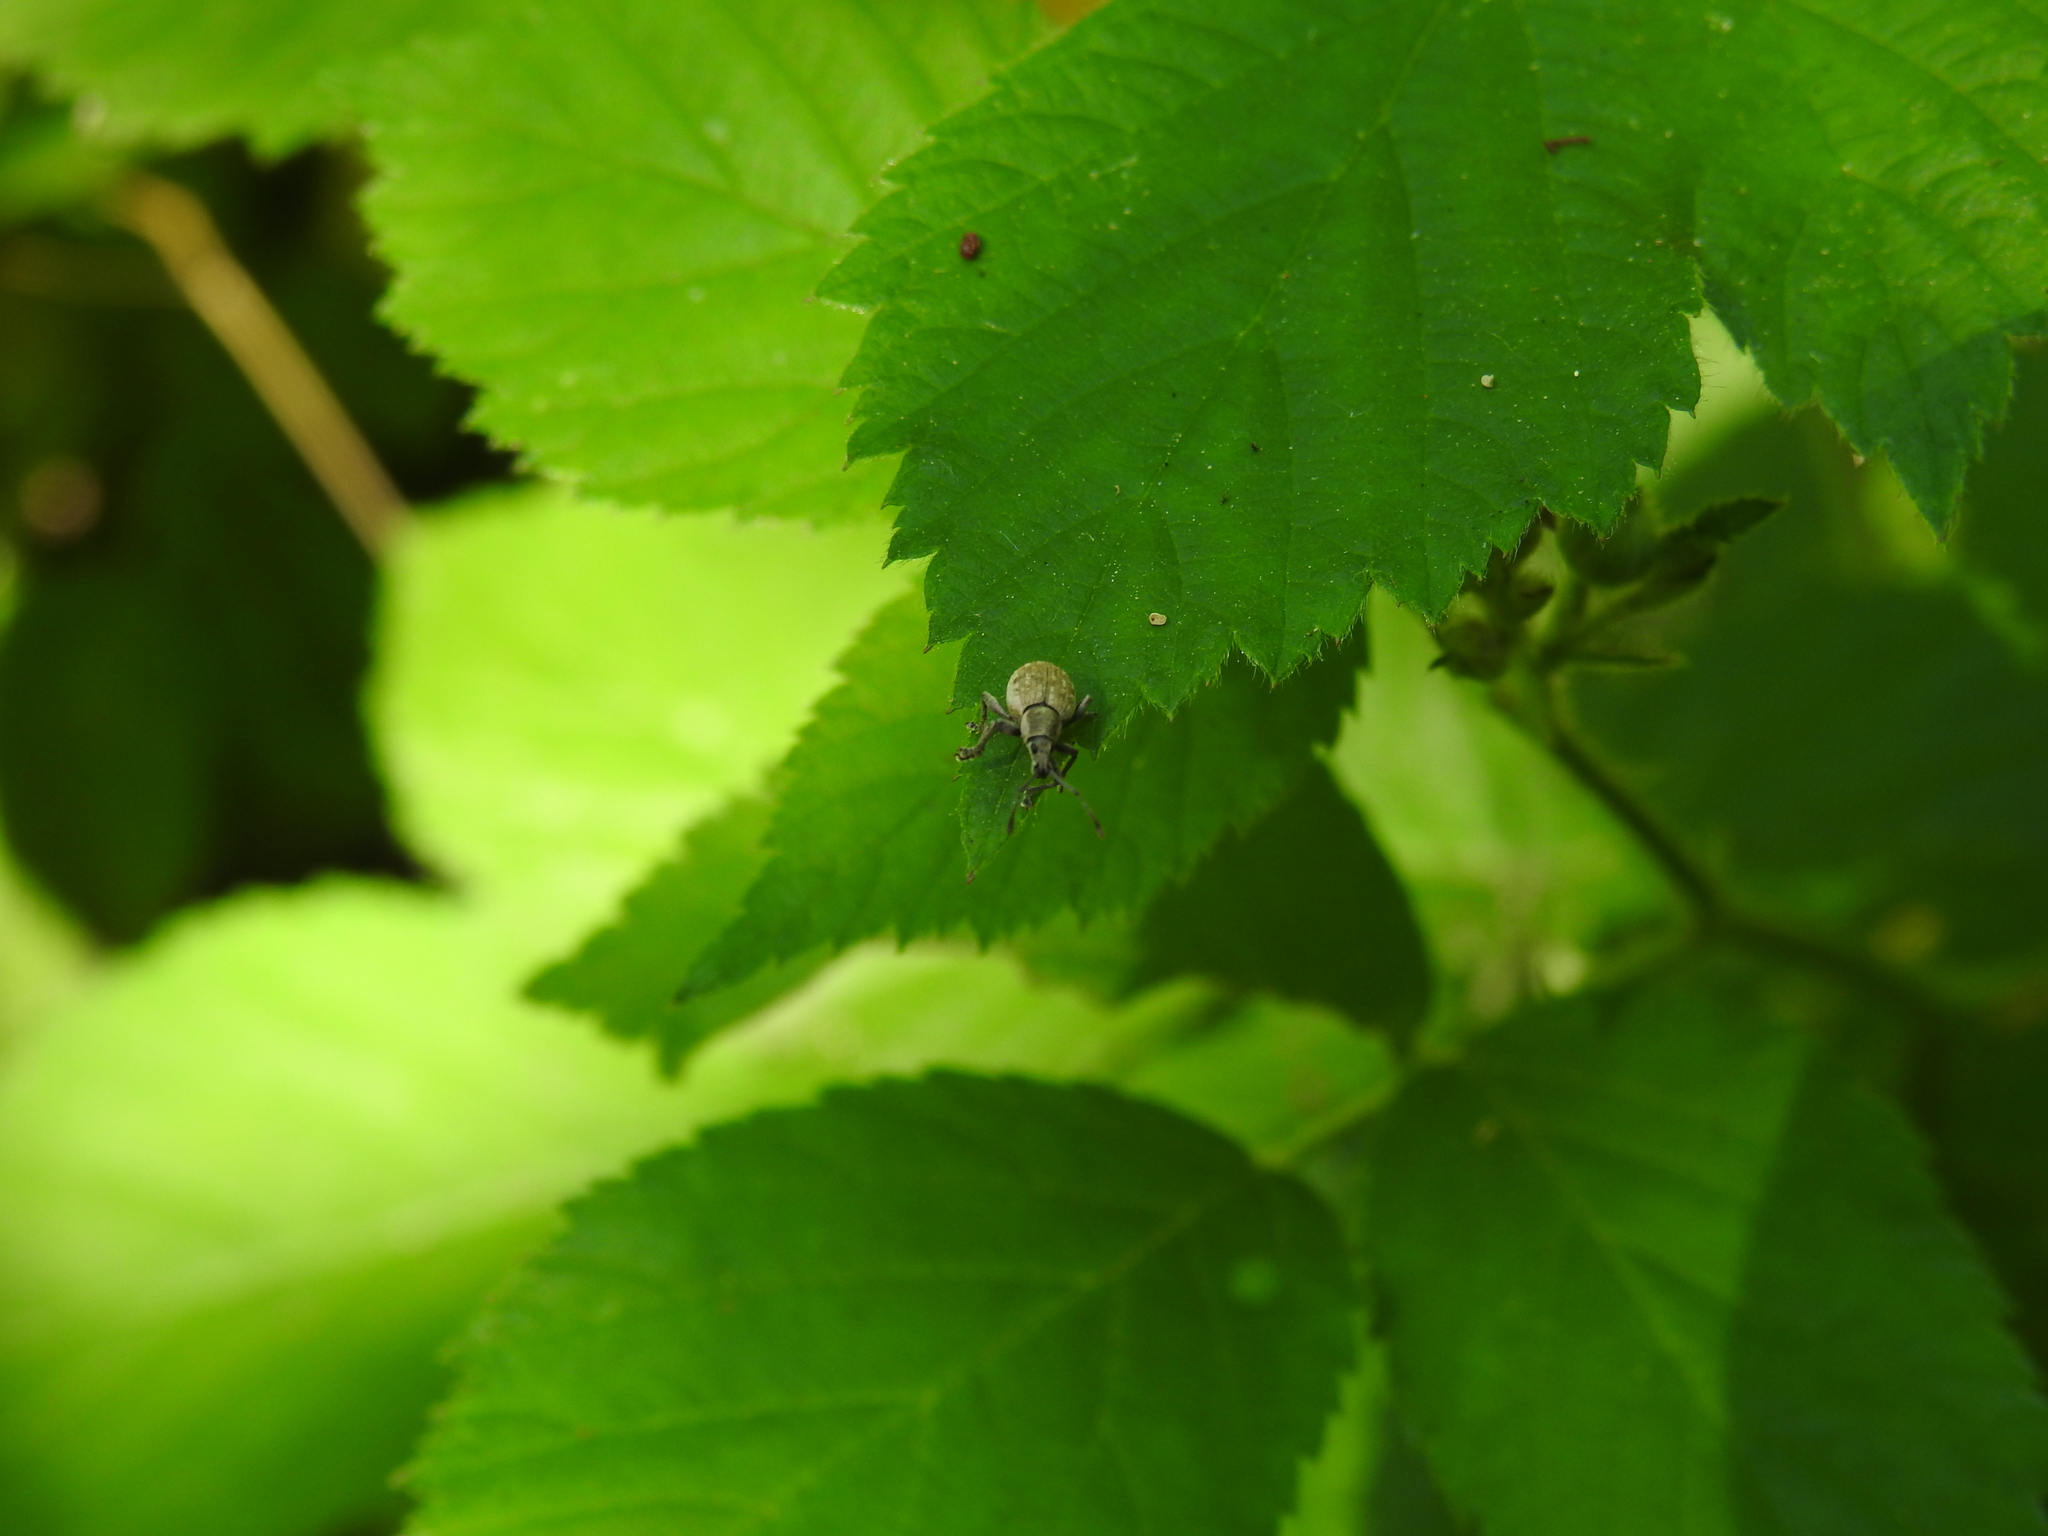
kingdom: Animalia
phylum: Arthropoda
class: Insecta
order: Coleoptera
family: Curculionidae
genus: Peritelus
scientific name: Peritelus sphaeroides
